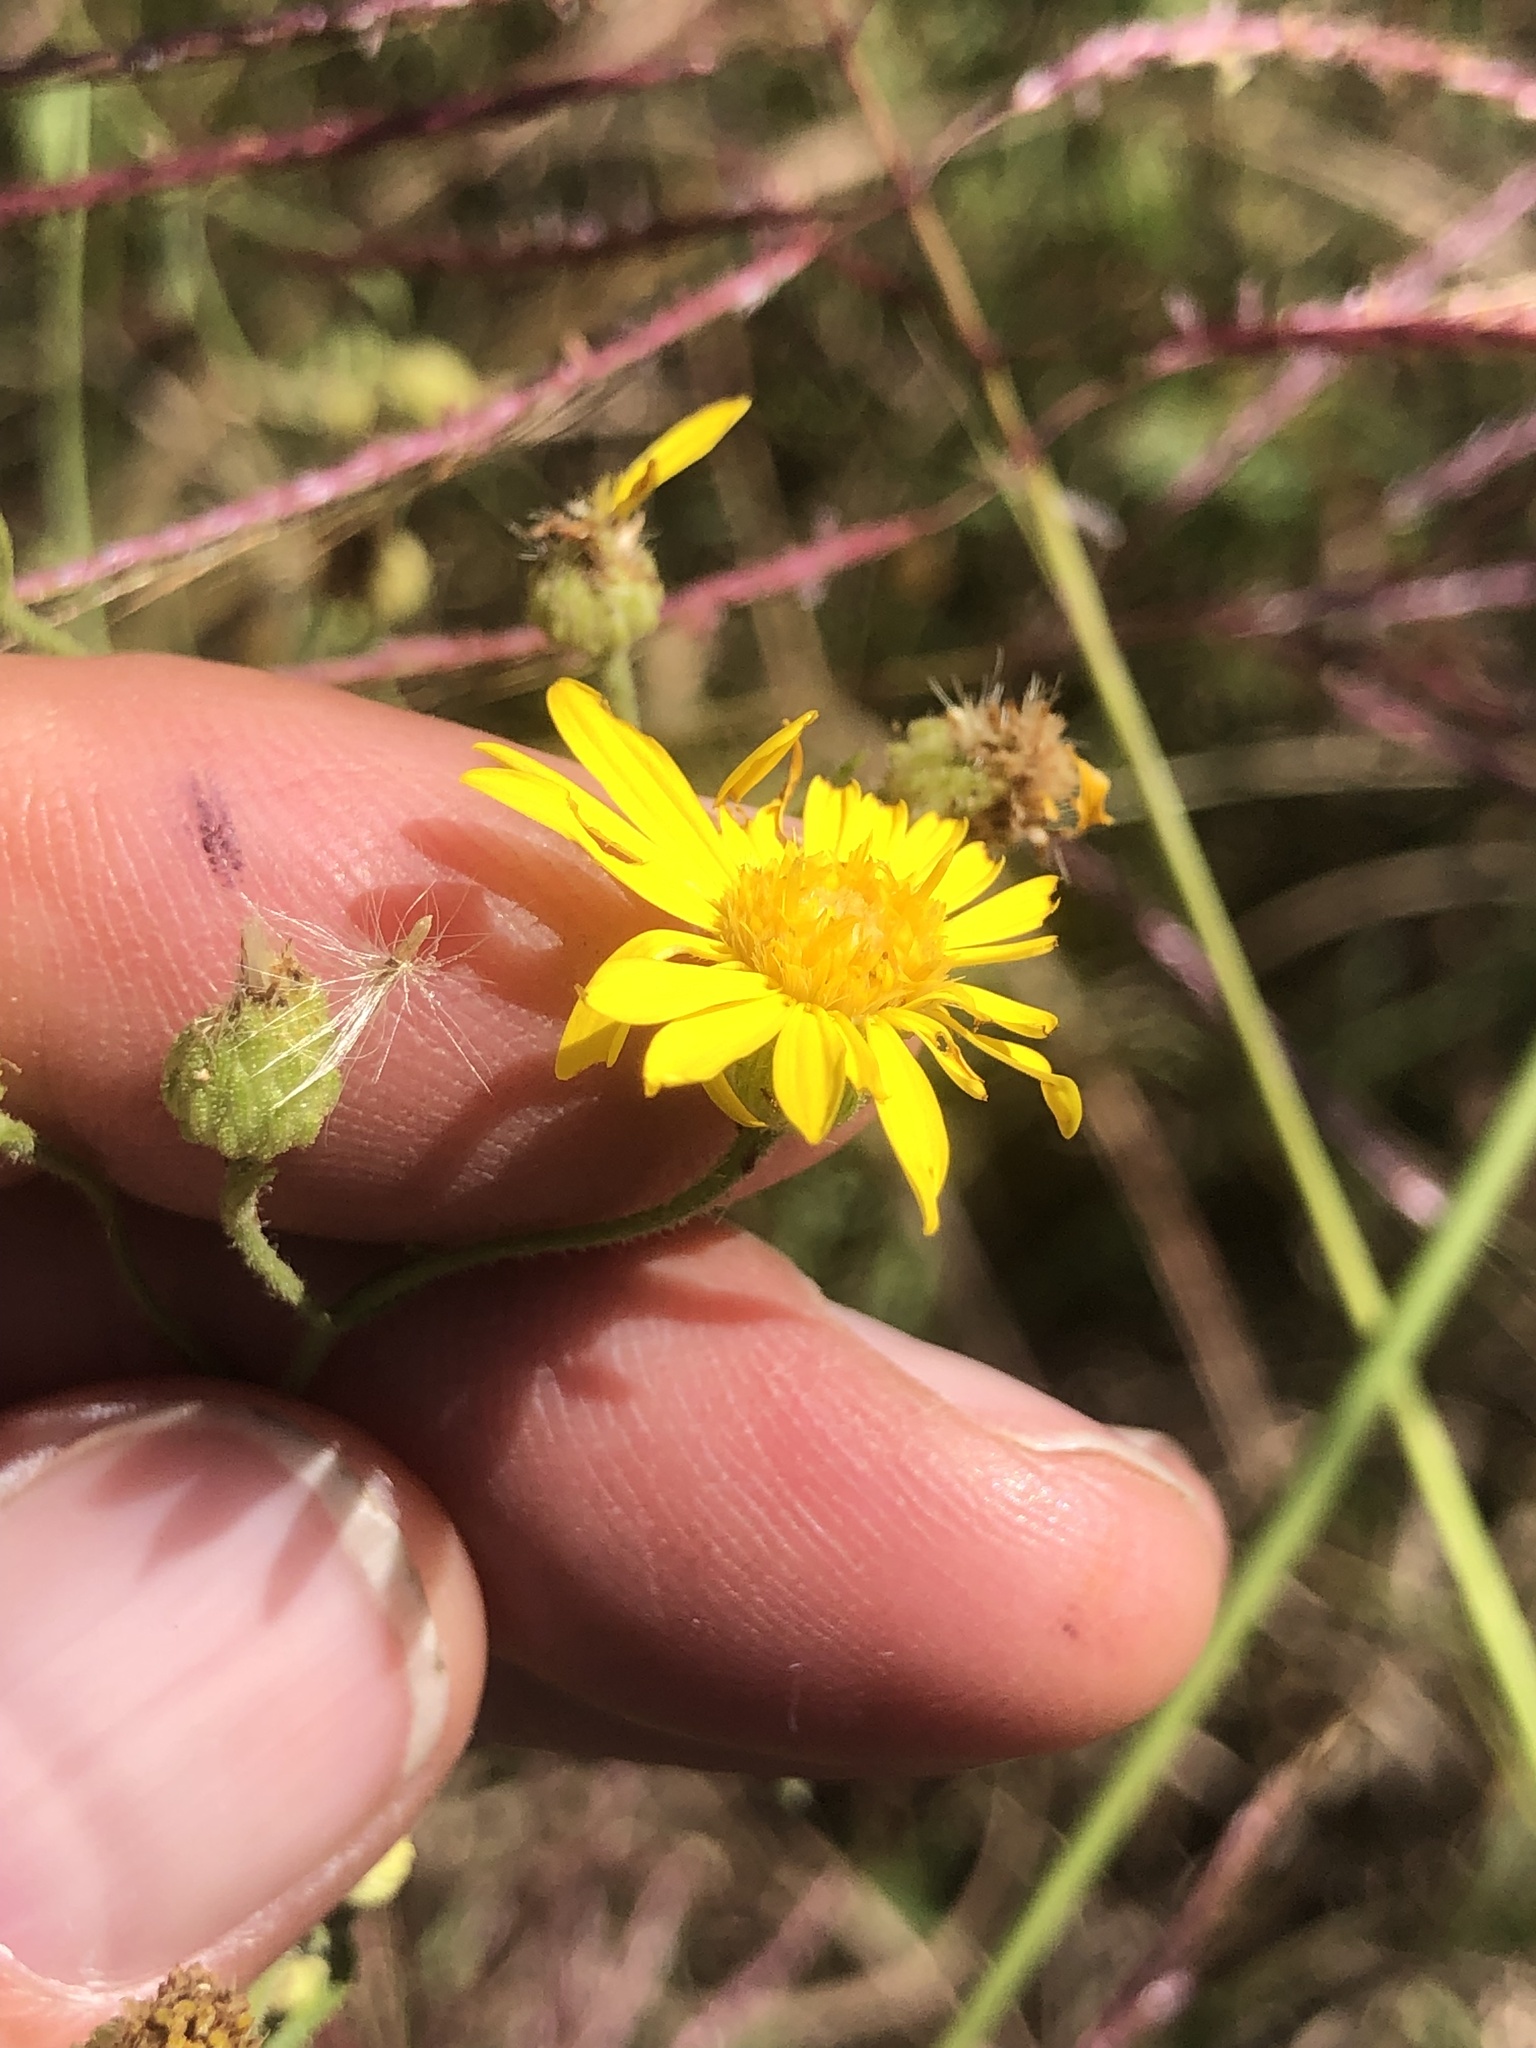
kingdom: Plantae
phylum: Tracheophyta
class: Magnoliopsida
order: Asterales
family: Asteraceae
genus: Heterotheca
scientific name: Heterotheca subaxillaris
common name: Camphorweed
